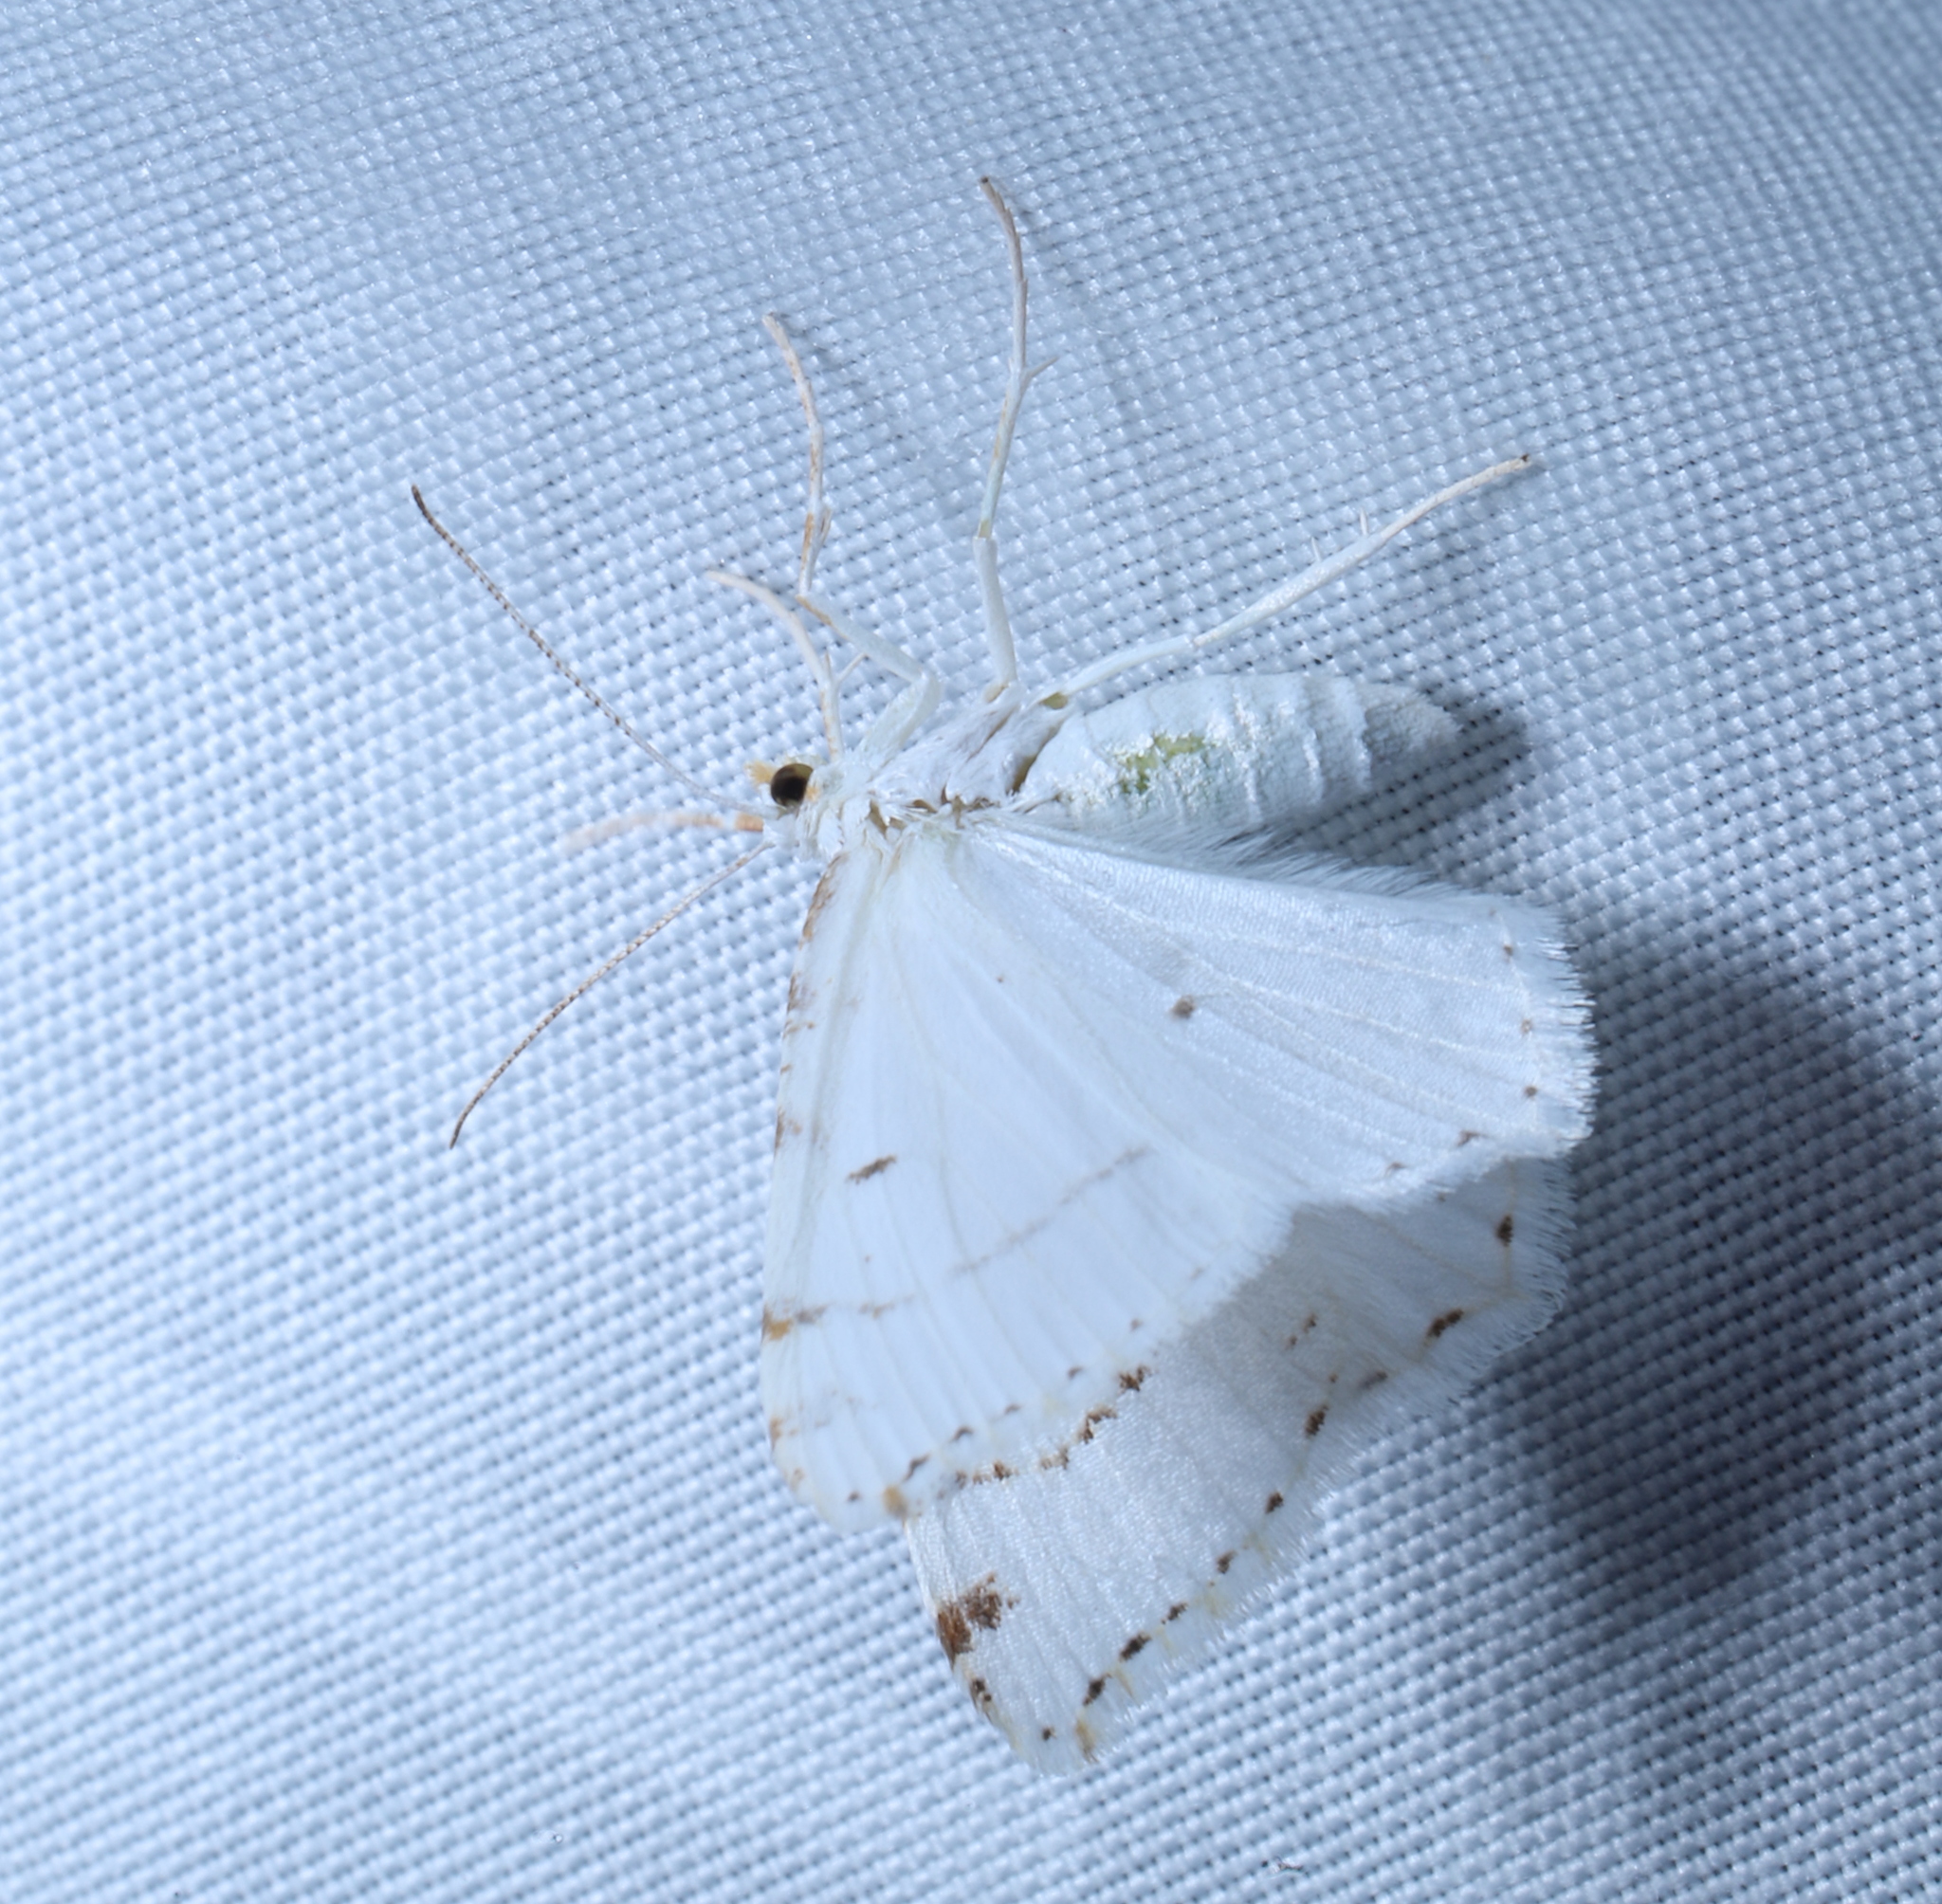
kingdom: Animalia
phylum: Arthropoda
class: Insecta
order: Lepidoptera
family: Geometridae
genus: Macaria
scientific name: Macaria pustularia
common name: Lesser maple spanworm moth
